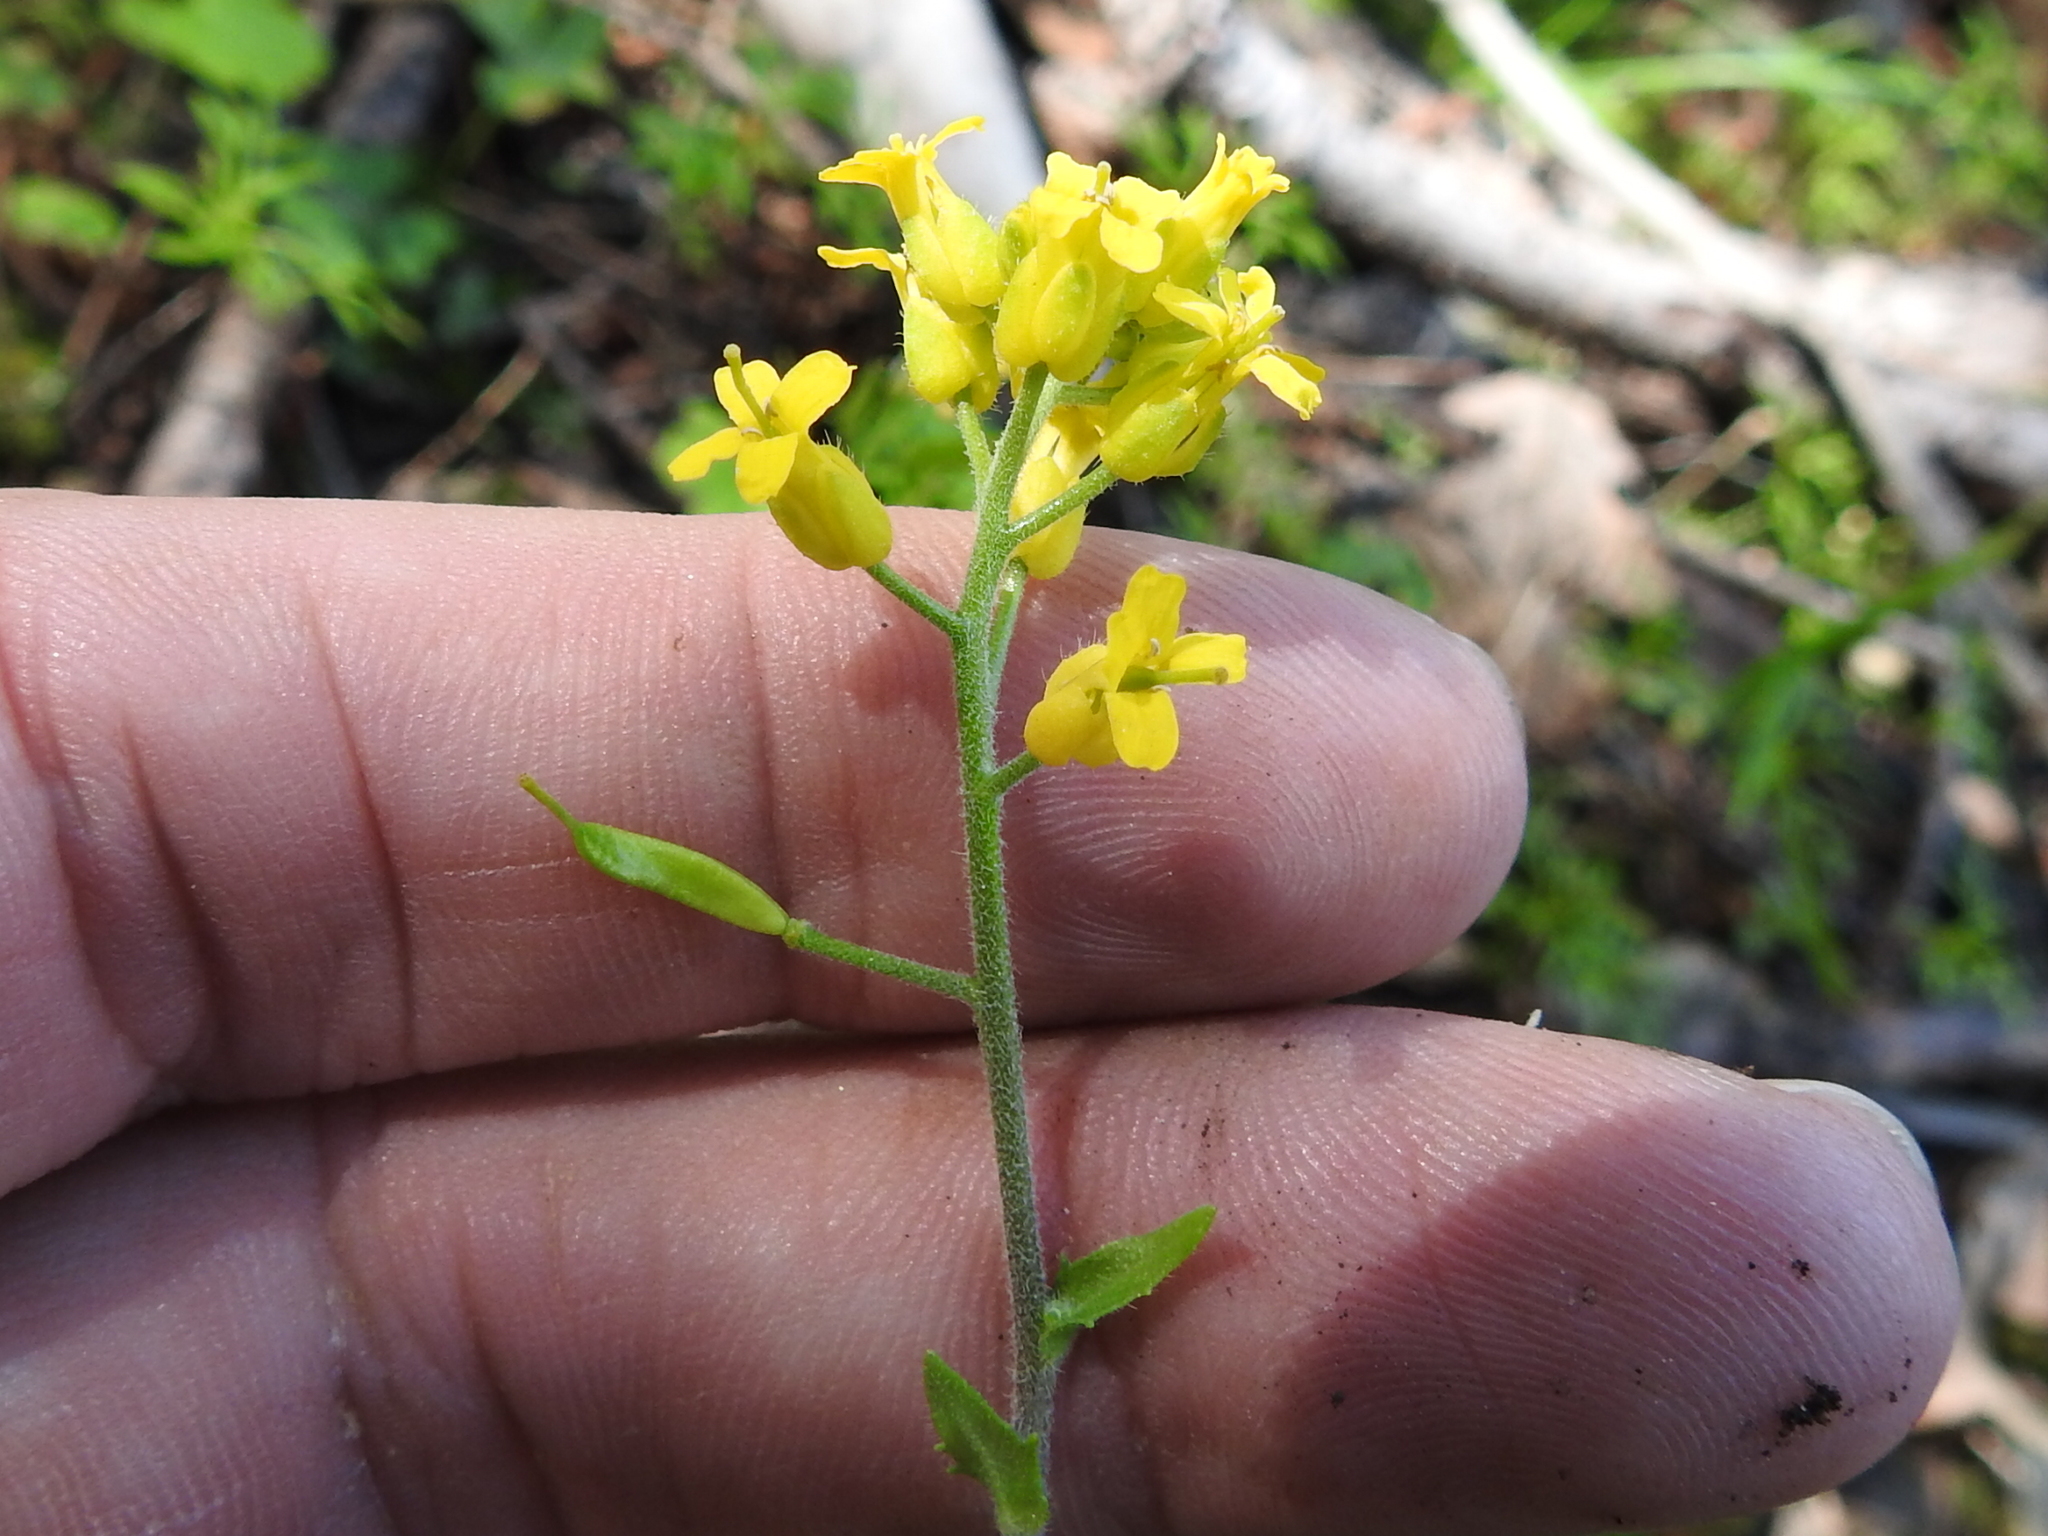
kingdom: Plantae
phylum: Tracheophyta
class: Magnoliopsida
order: Brassicales
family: Brassicaceae
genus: Draba
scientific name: Draba helleriana
